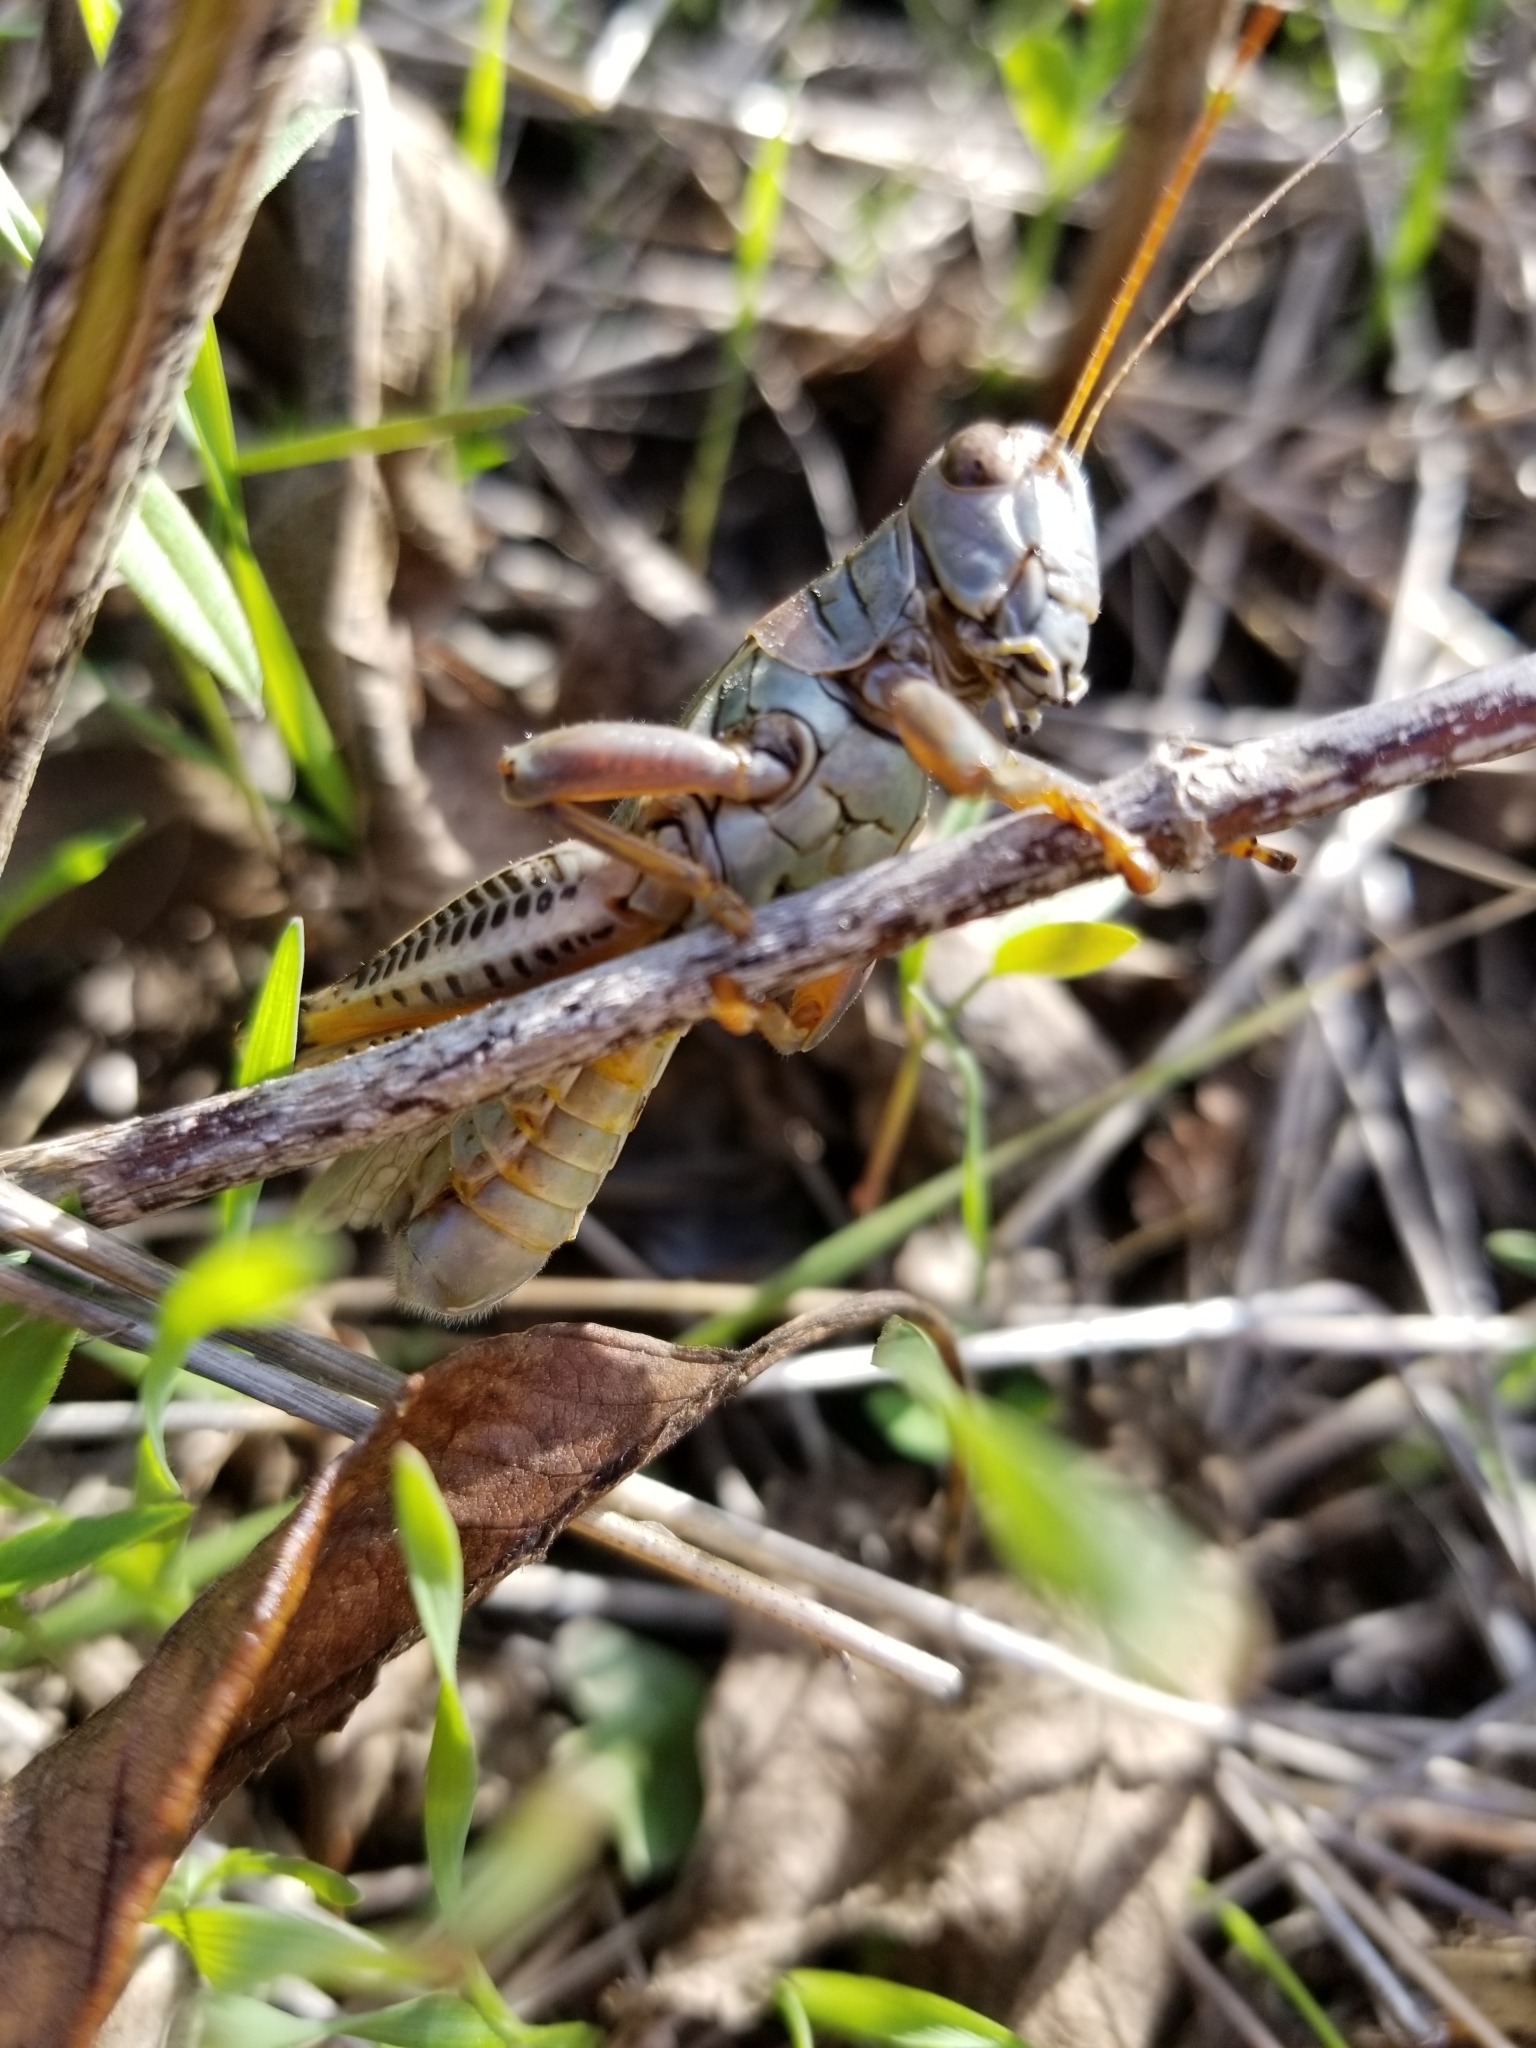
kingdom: Animalia
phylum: Arthropoda
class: Insecta
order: Orthoptera
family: Acrididae
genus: Melanoplus
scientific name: Melanoplus differentialis
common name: Differential grasshopper
